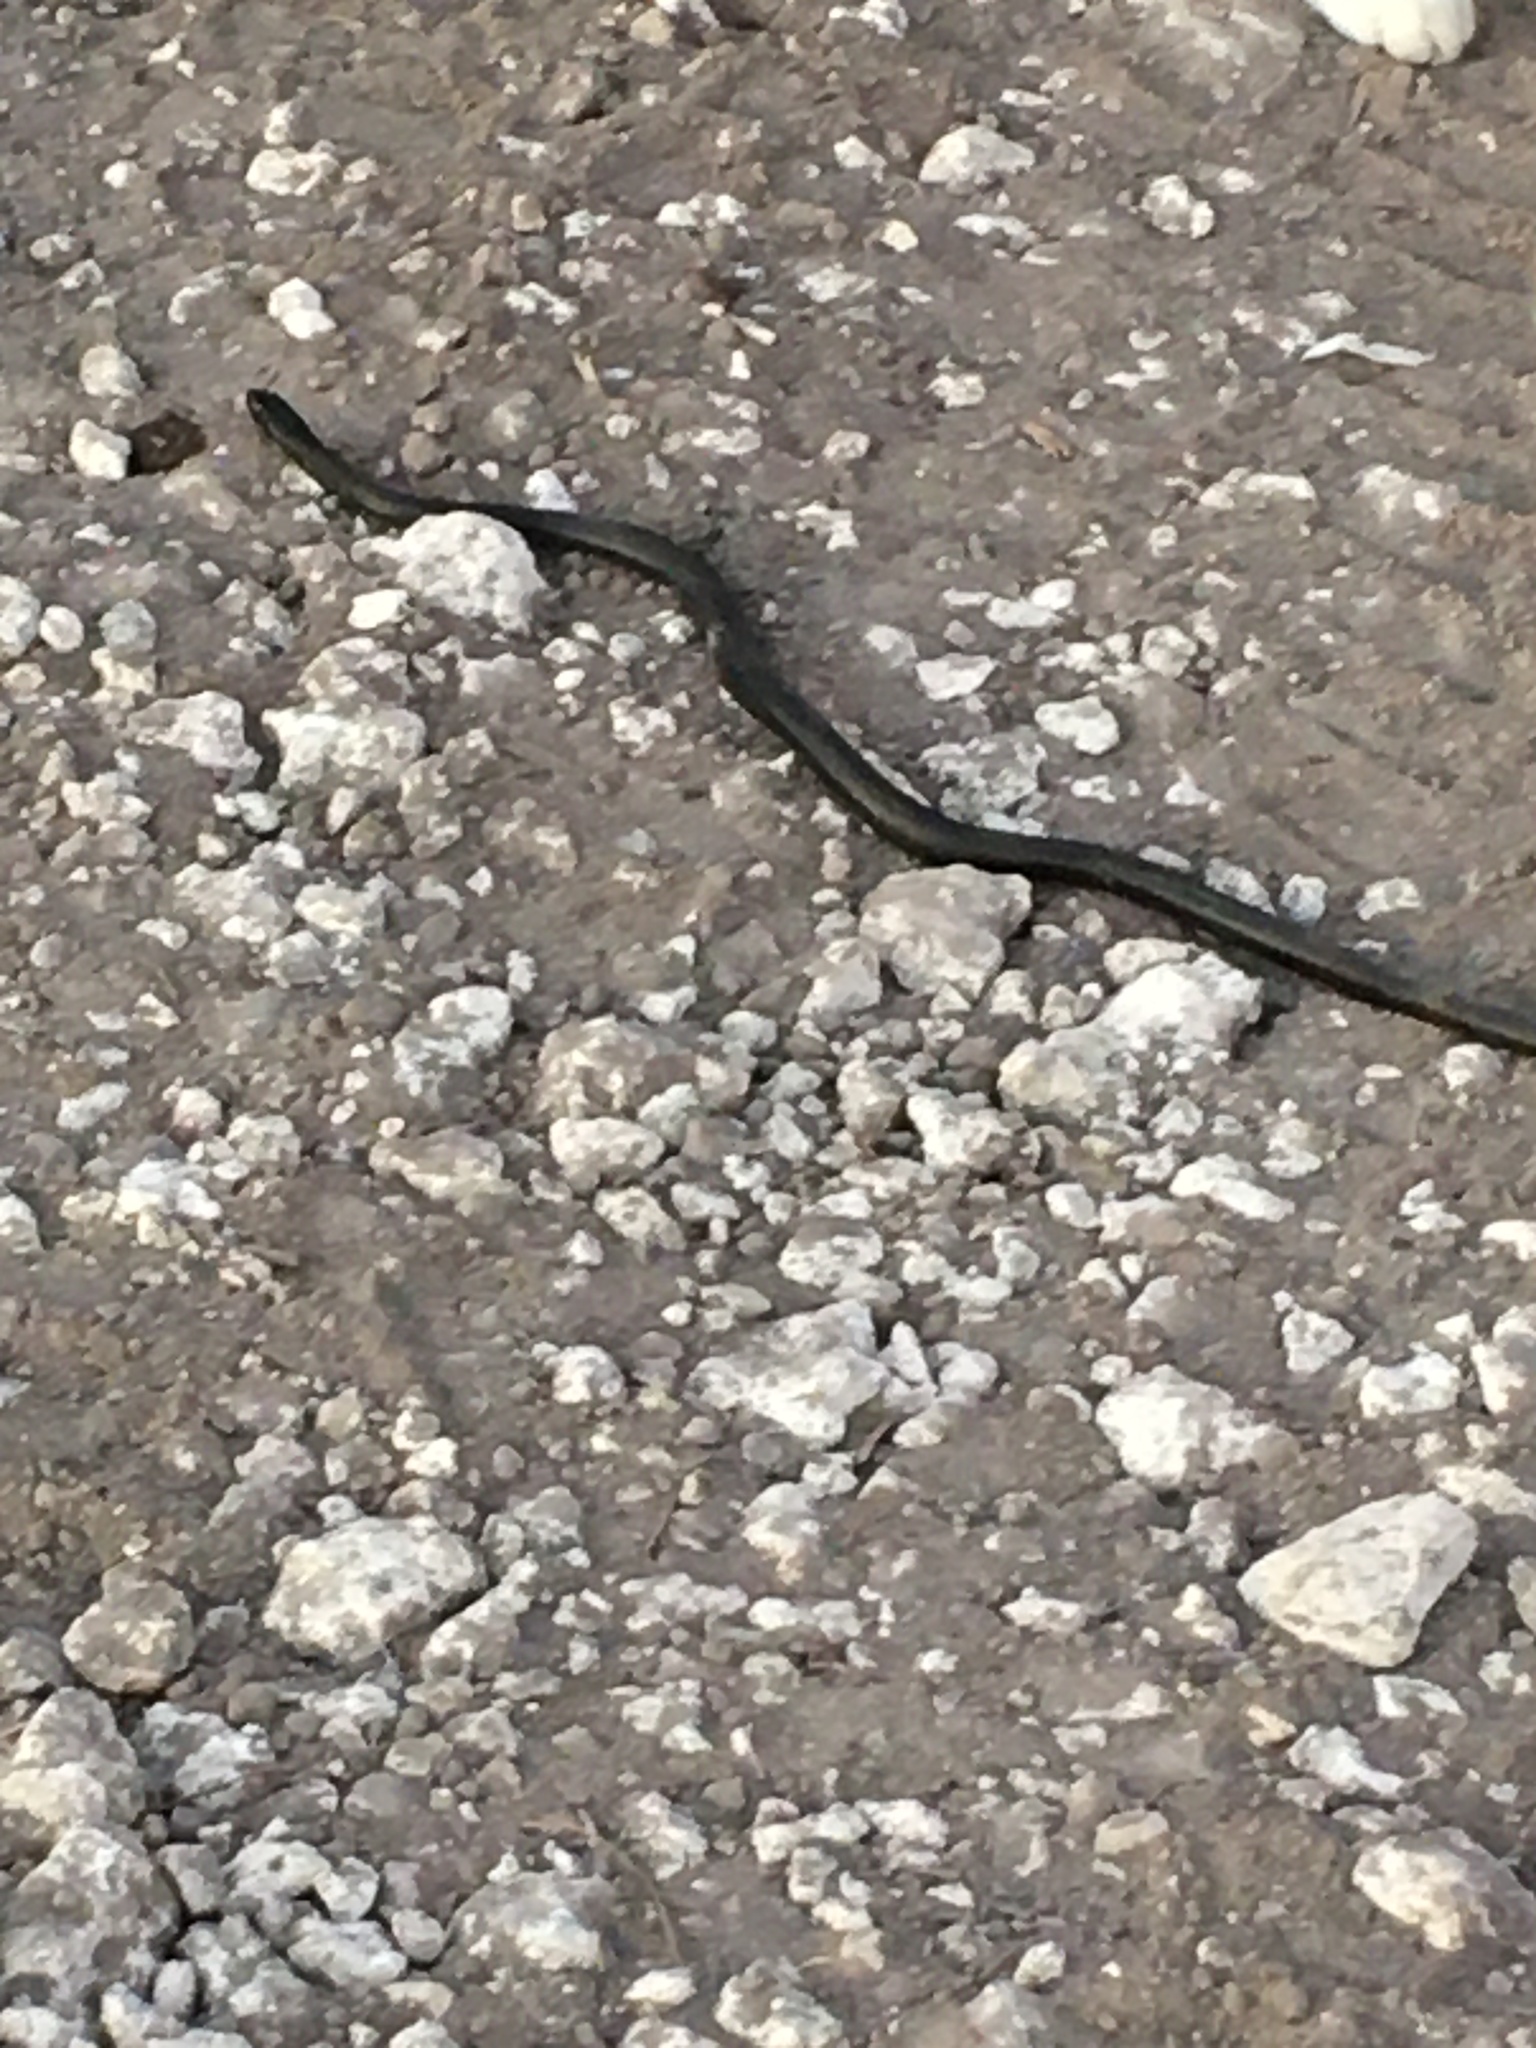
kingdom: Animalia
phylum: Chordata
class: Squamata
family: Colubridae
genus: Coluber
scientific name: Coluber constrictor
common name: Eastern racer
